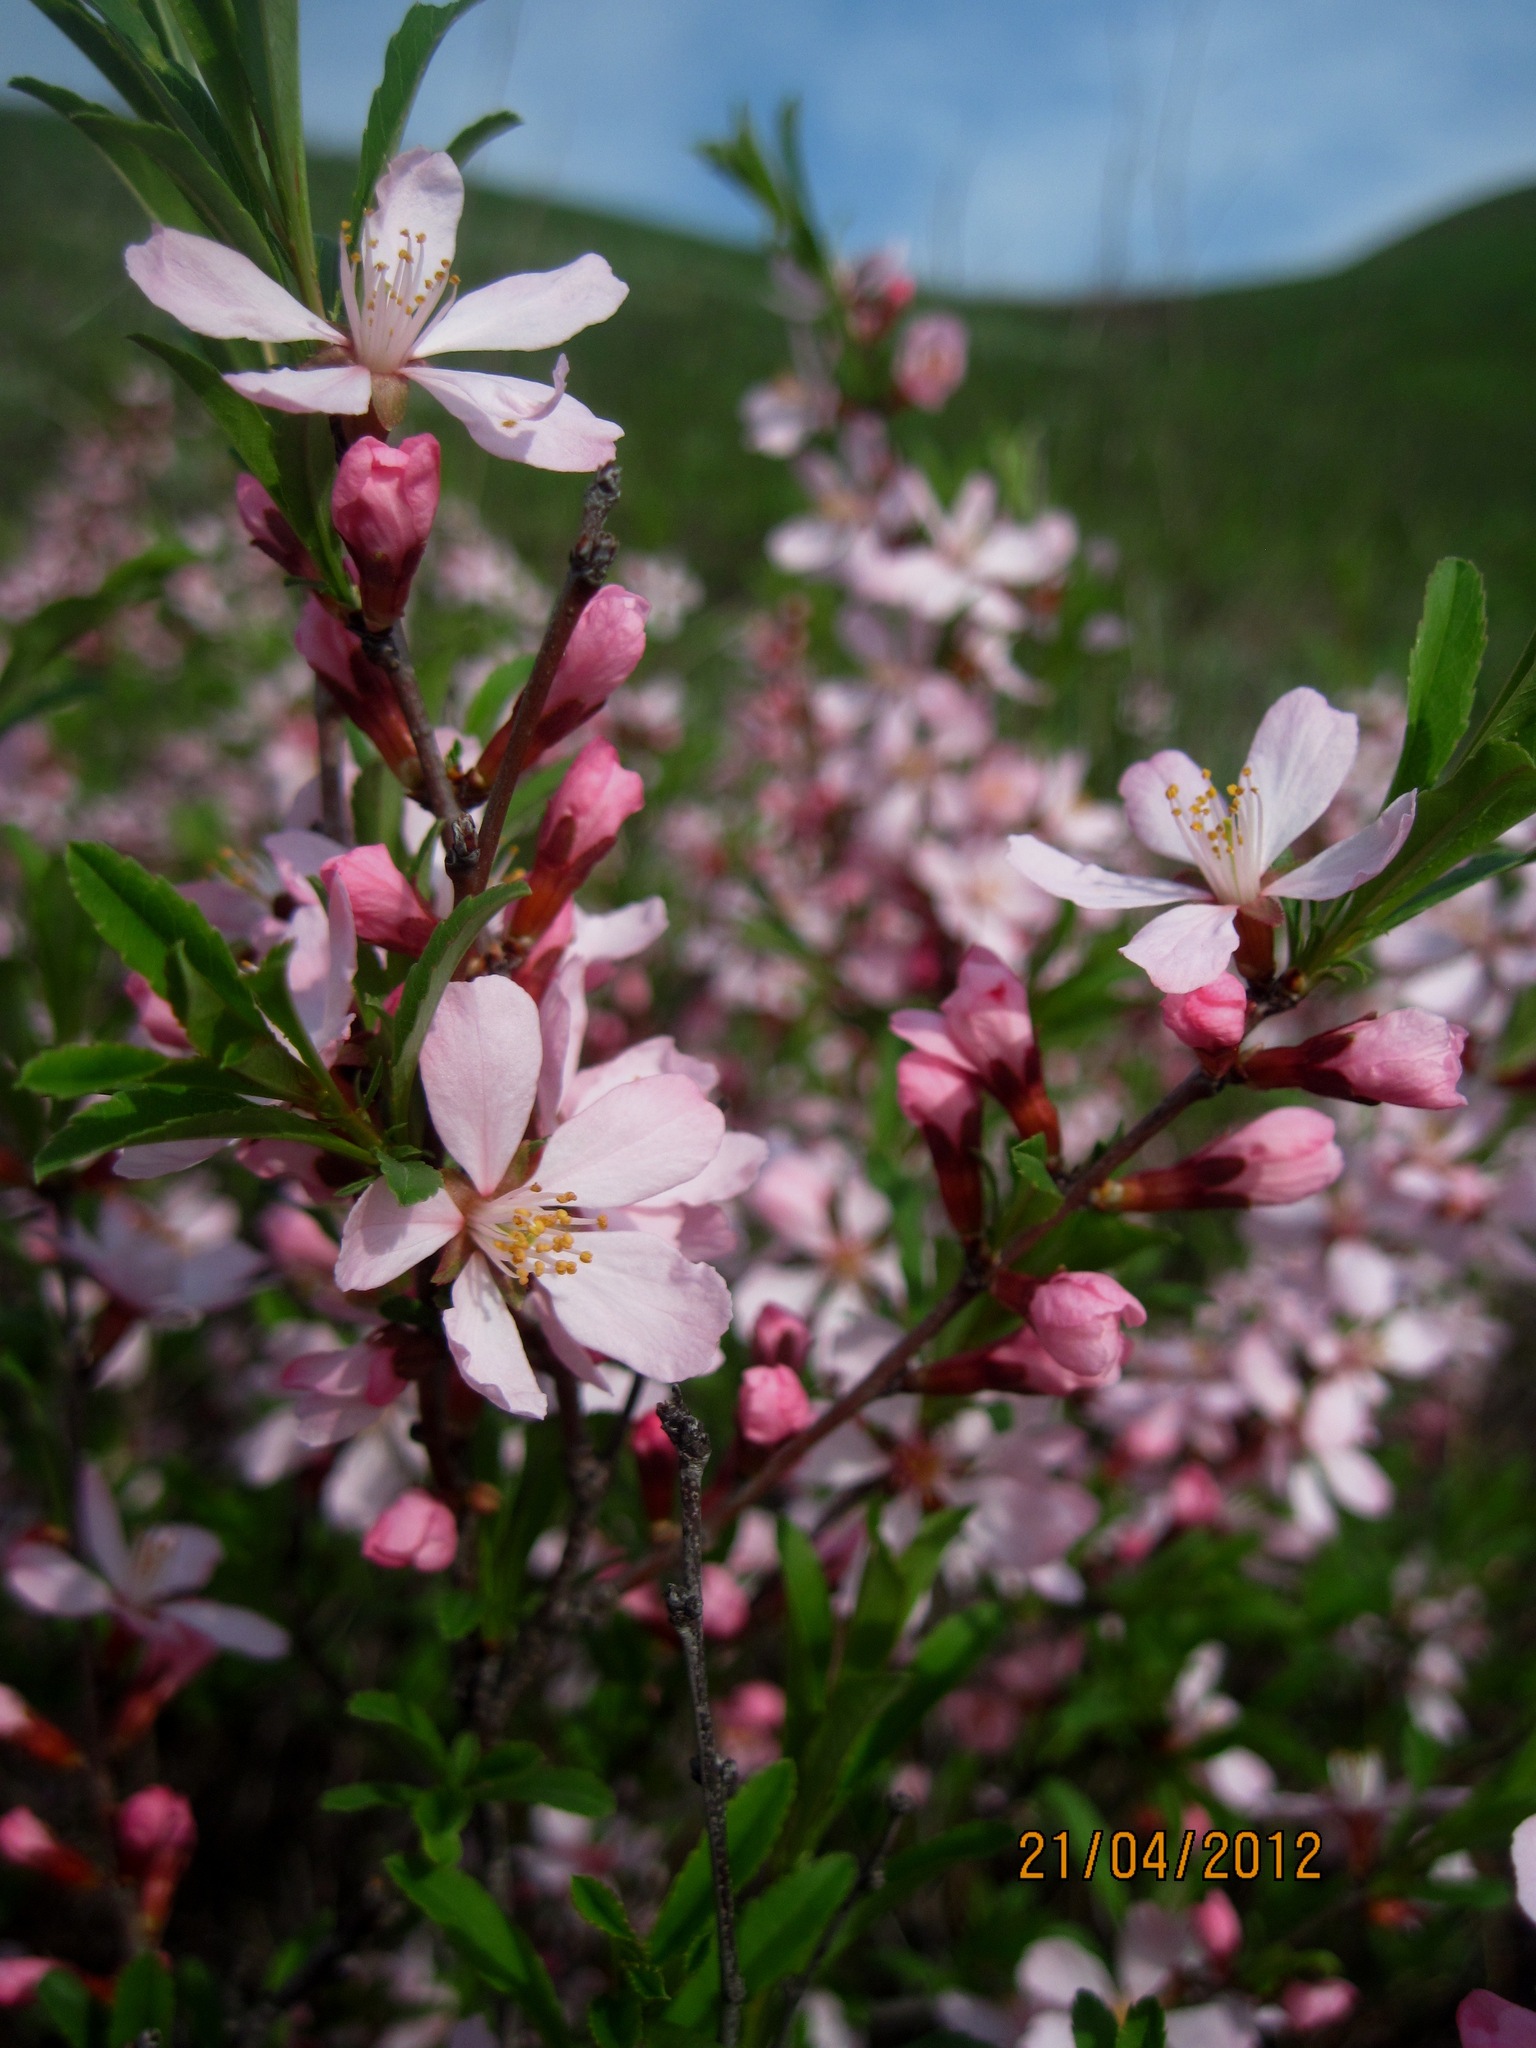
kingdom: Plantae
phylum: Tracheophyta
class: Magnoliopsida
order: Rosales
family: Rosaceae
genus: Prunus
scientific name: Prunus tenella
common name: Dwarf russian almond
